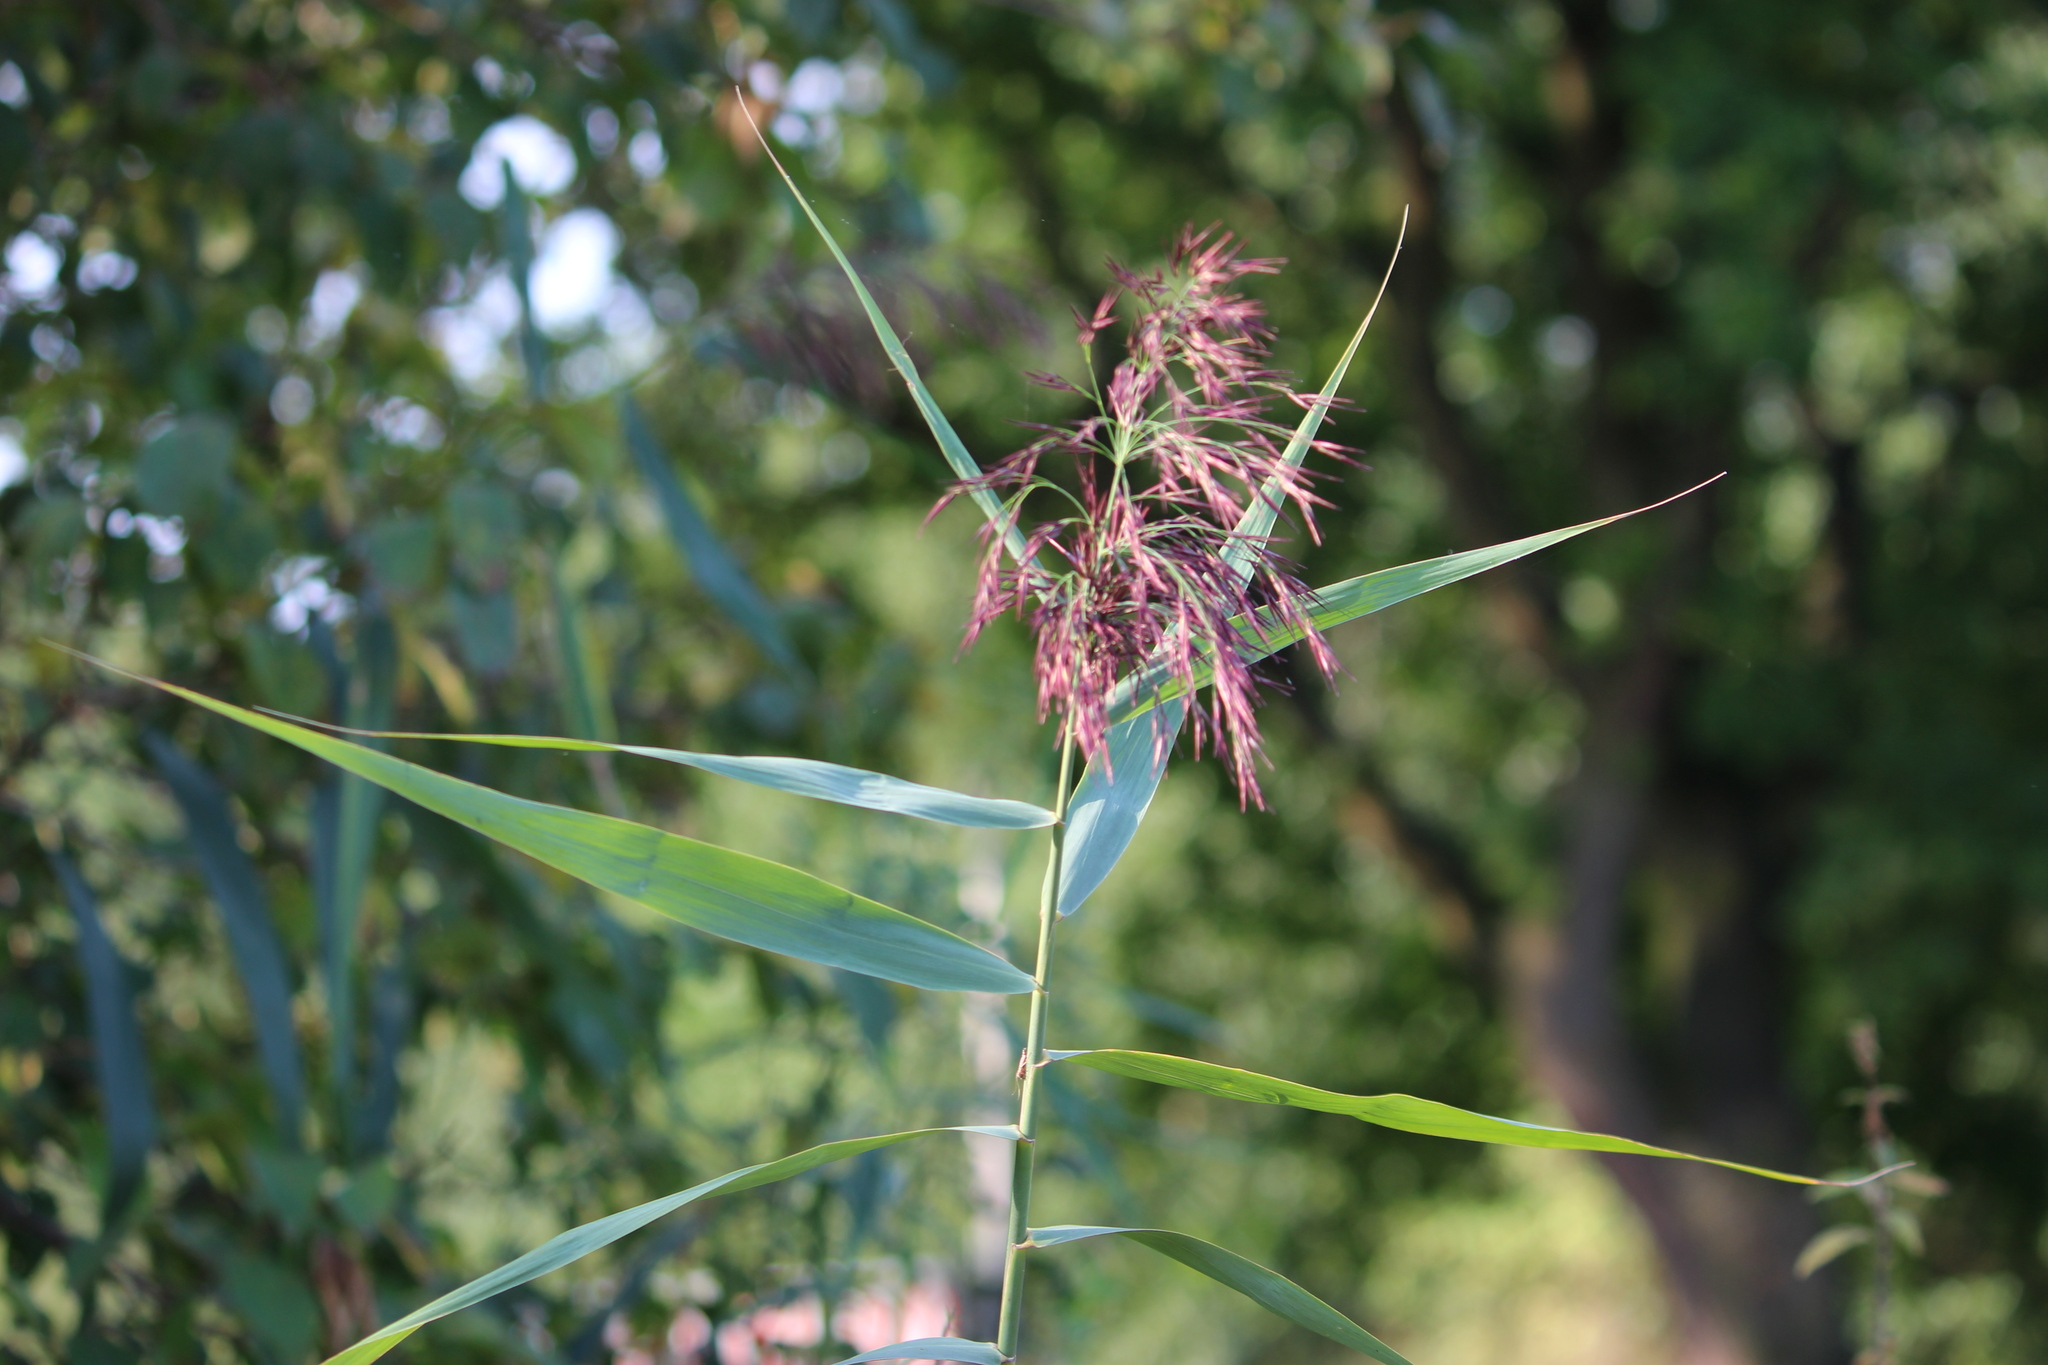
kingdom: Plantae
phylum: Tracheophyta
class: Liliopsida
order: Poales
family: Poaceae
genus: Phragmites
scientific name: Phragmites australis
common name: Common reed
